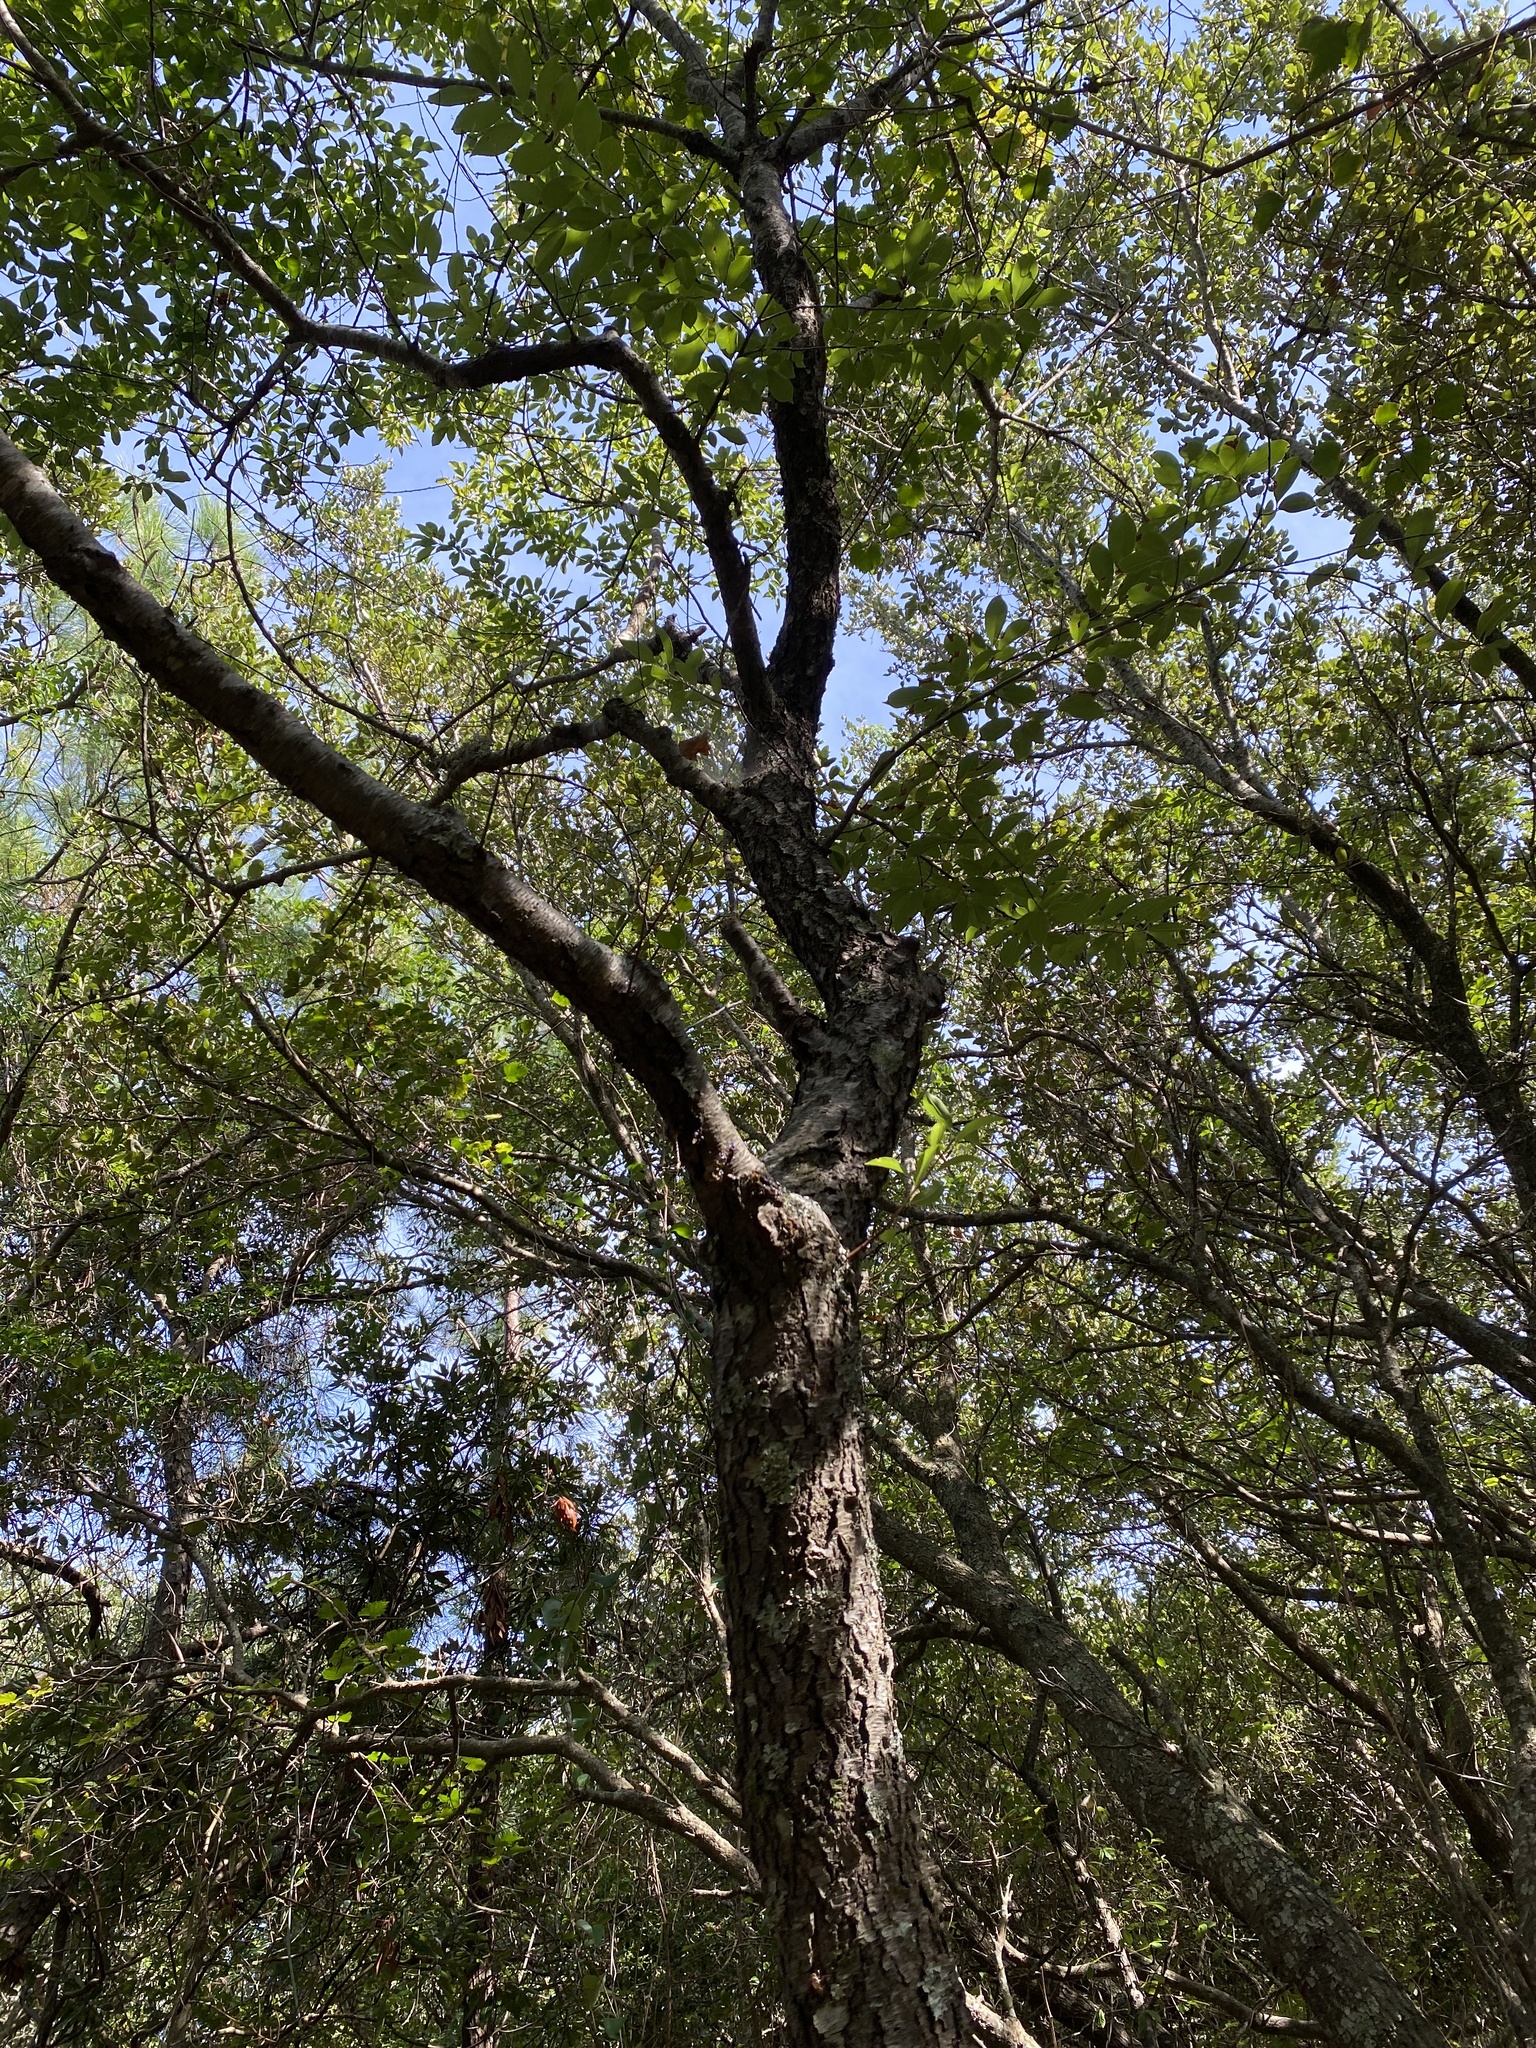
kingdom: Plantae
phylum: Tracheophyta
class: Magnoliopsida
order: Rosales
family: Rosaceae
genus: Prunus
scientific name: Prunus serotina
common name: Black cherry
